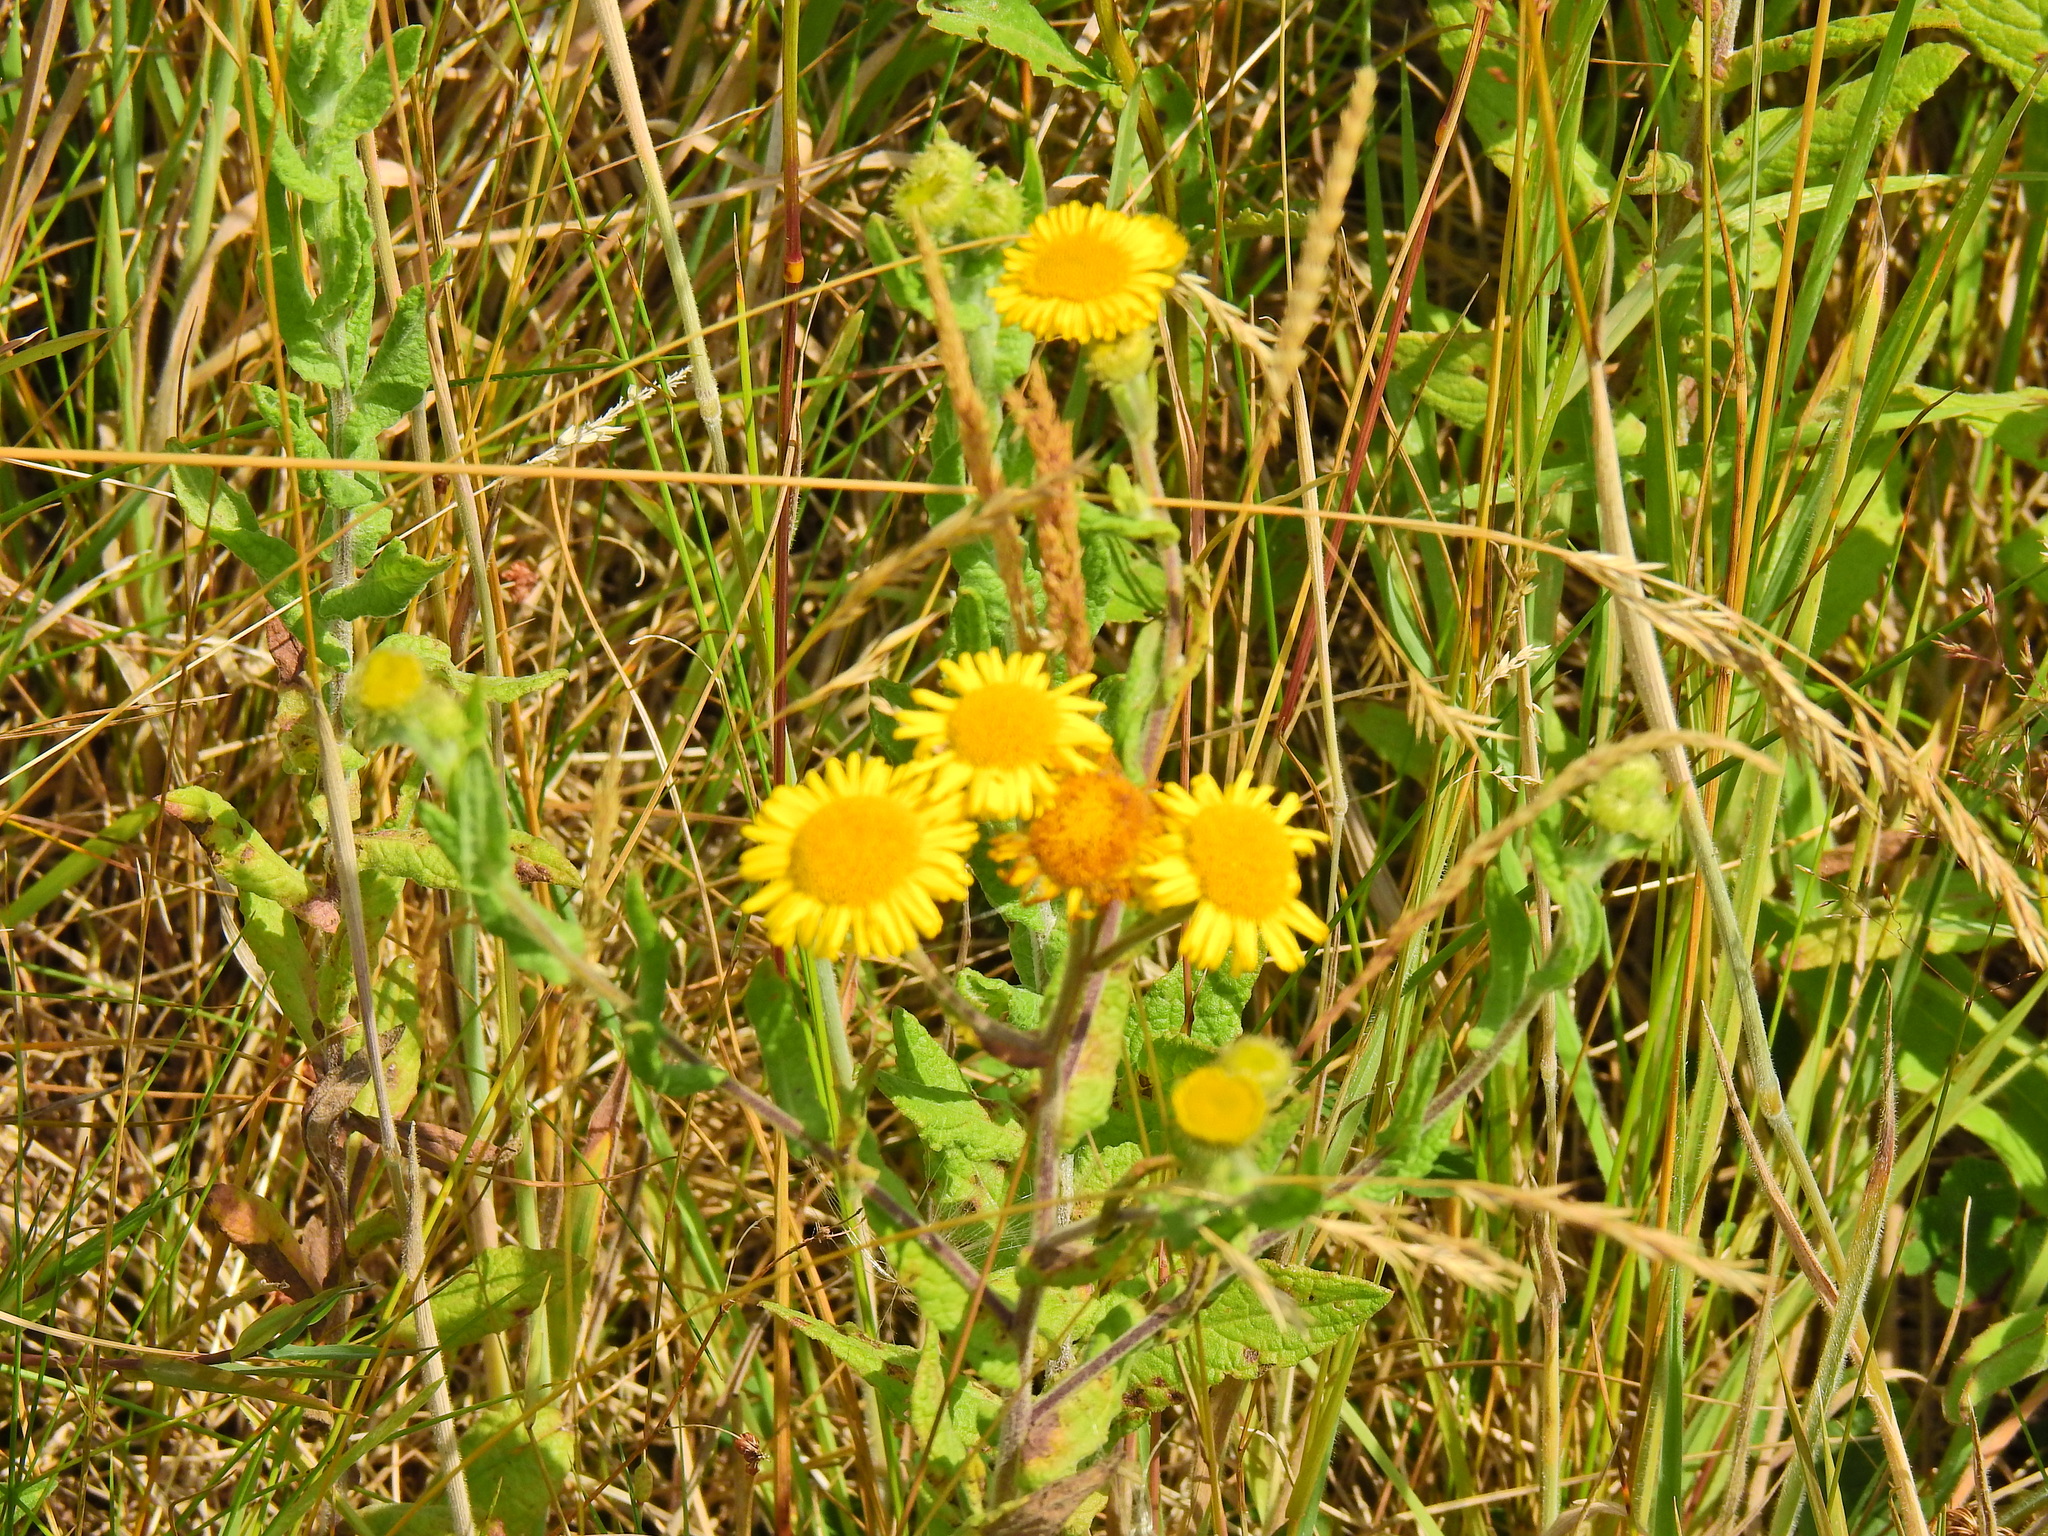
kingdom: Plantae
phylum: Tracheophyta
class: Magnoliopsida
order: Asterales
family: Asteraceae
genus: Pulicaria
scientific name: Pulicaria dysenterica
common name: Common fleabane
